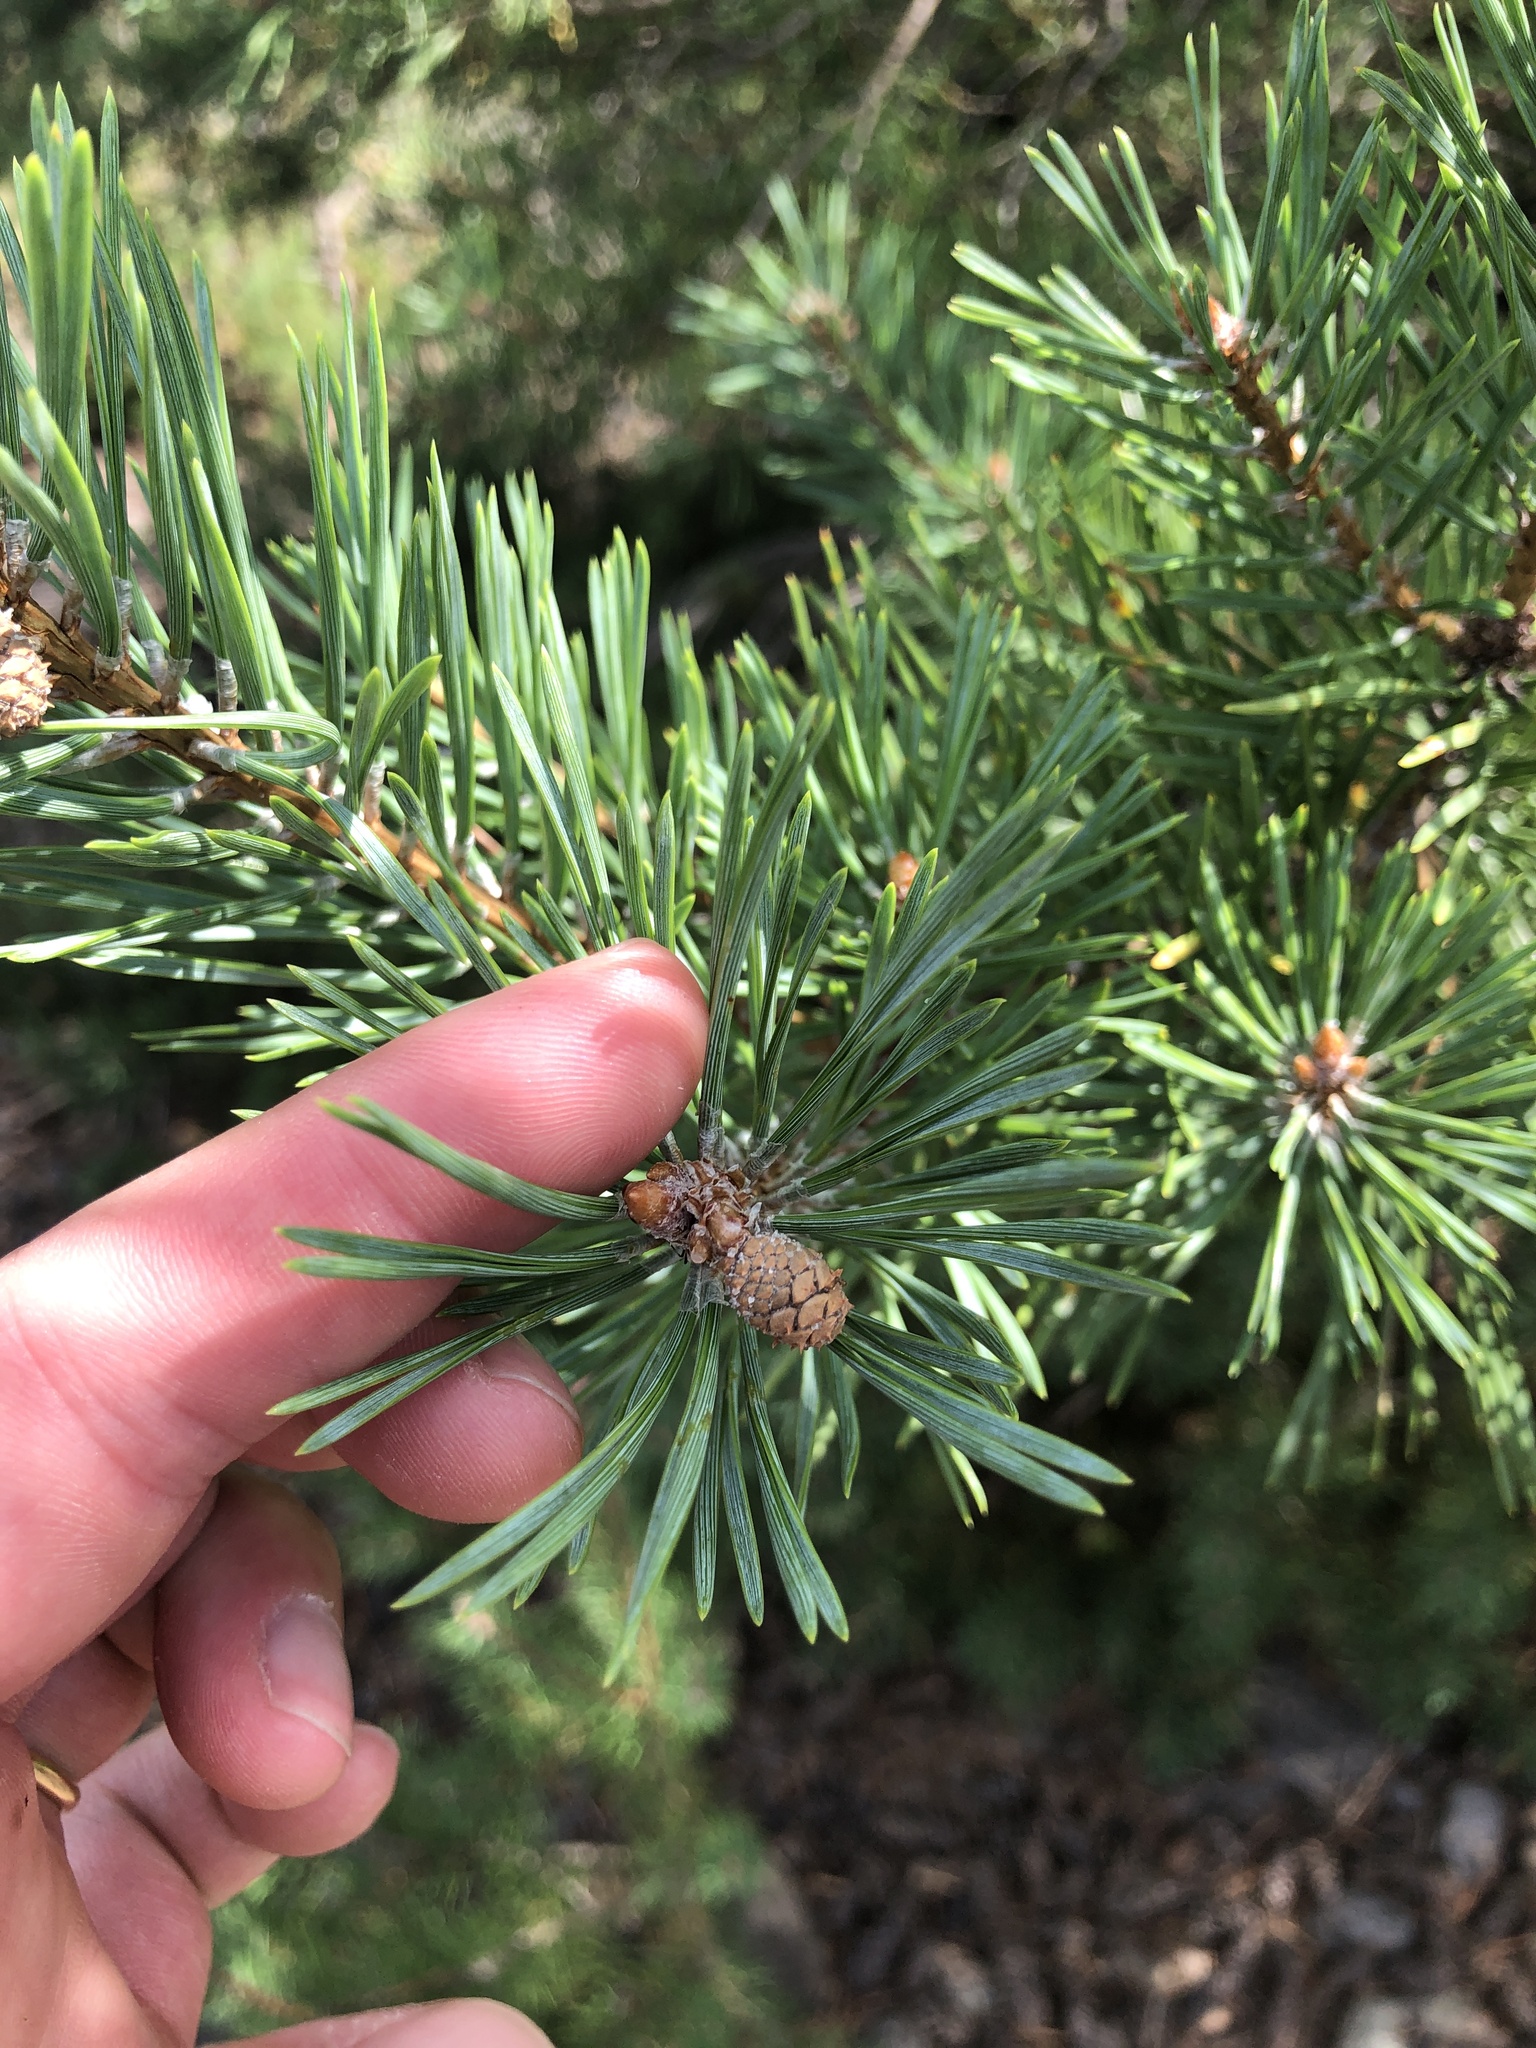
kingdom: Plantae
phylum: Tracheophyta
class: Pinopsida
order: Pinales
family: Pinaceae
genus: Pinus
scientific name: Pinus sylvestris
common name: Scots pine
